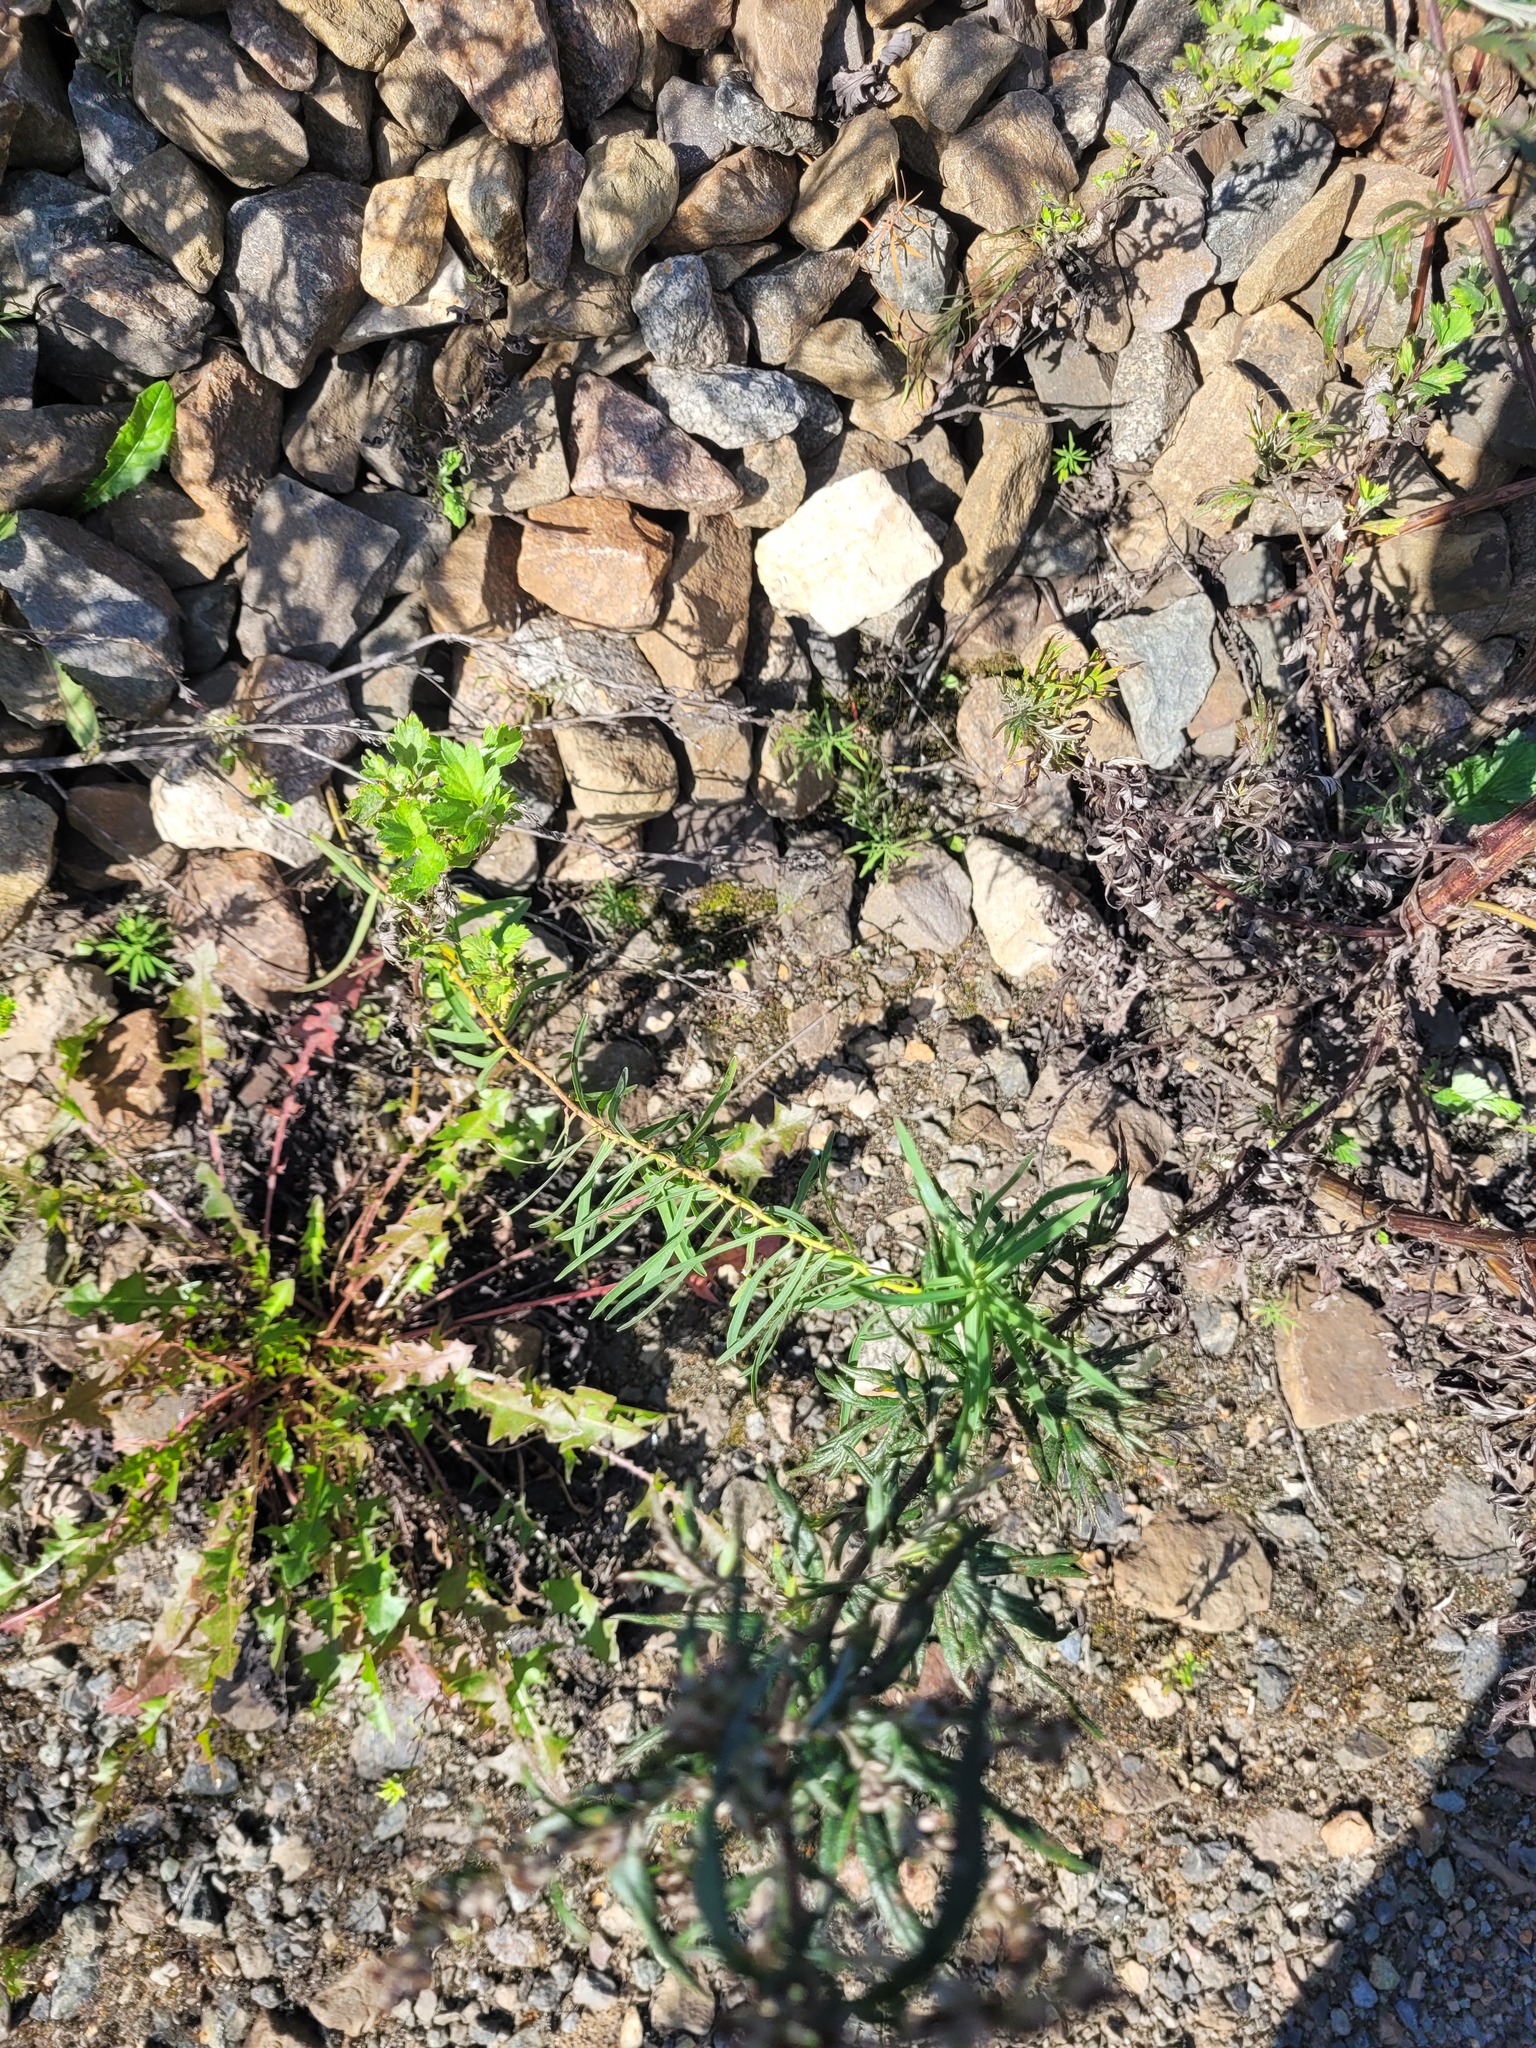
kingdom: Plantae
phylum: Tracheophyta
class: Magnoliopsida
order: Malpighiales
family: Euphorbiaceae
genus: Euphorbia
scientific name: Euphorbia virgata
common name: Leafy spurge
